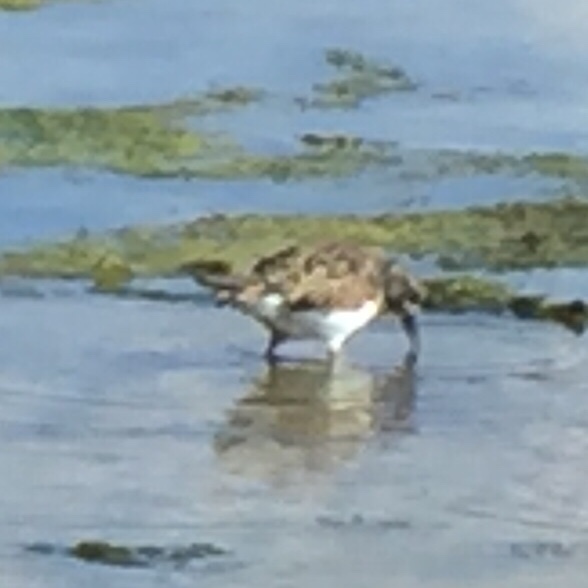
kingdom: Animalia
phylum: Chordata
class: Aves
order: Charadriiformes
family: Scolopacidae
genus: Arenaria
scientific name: Arenaria interpres
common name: Ruddy turnstone
